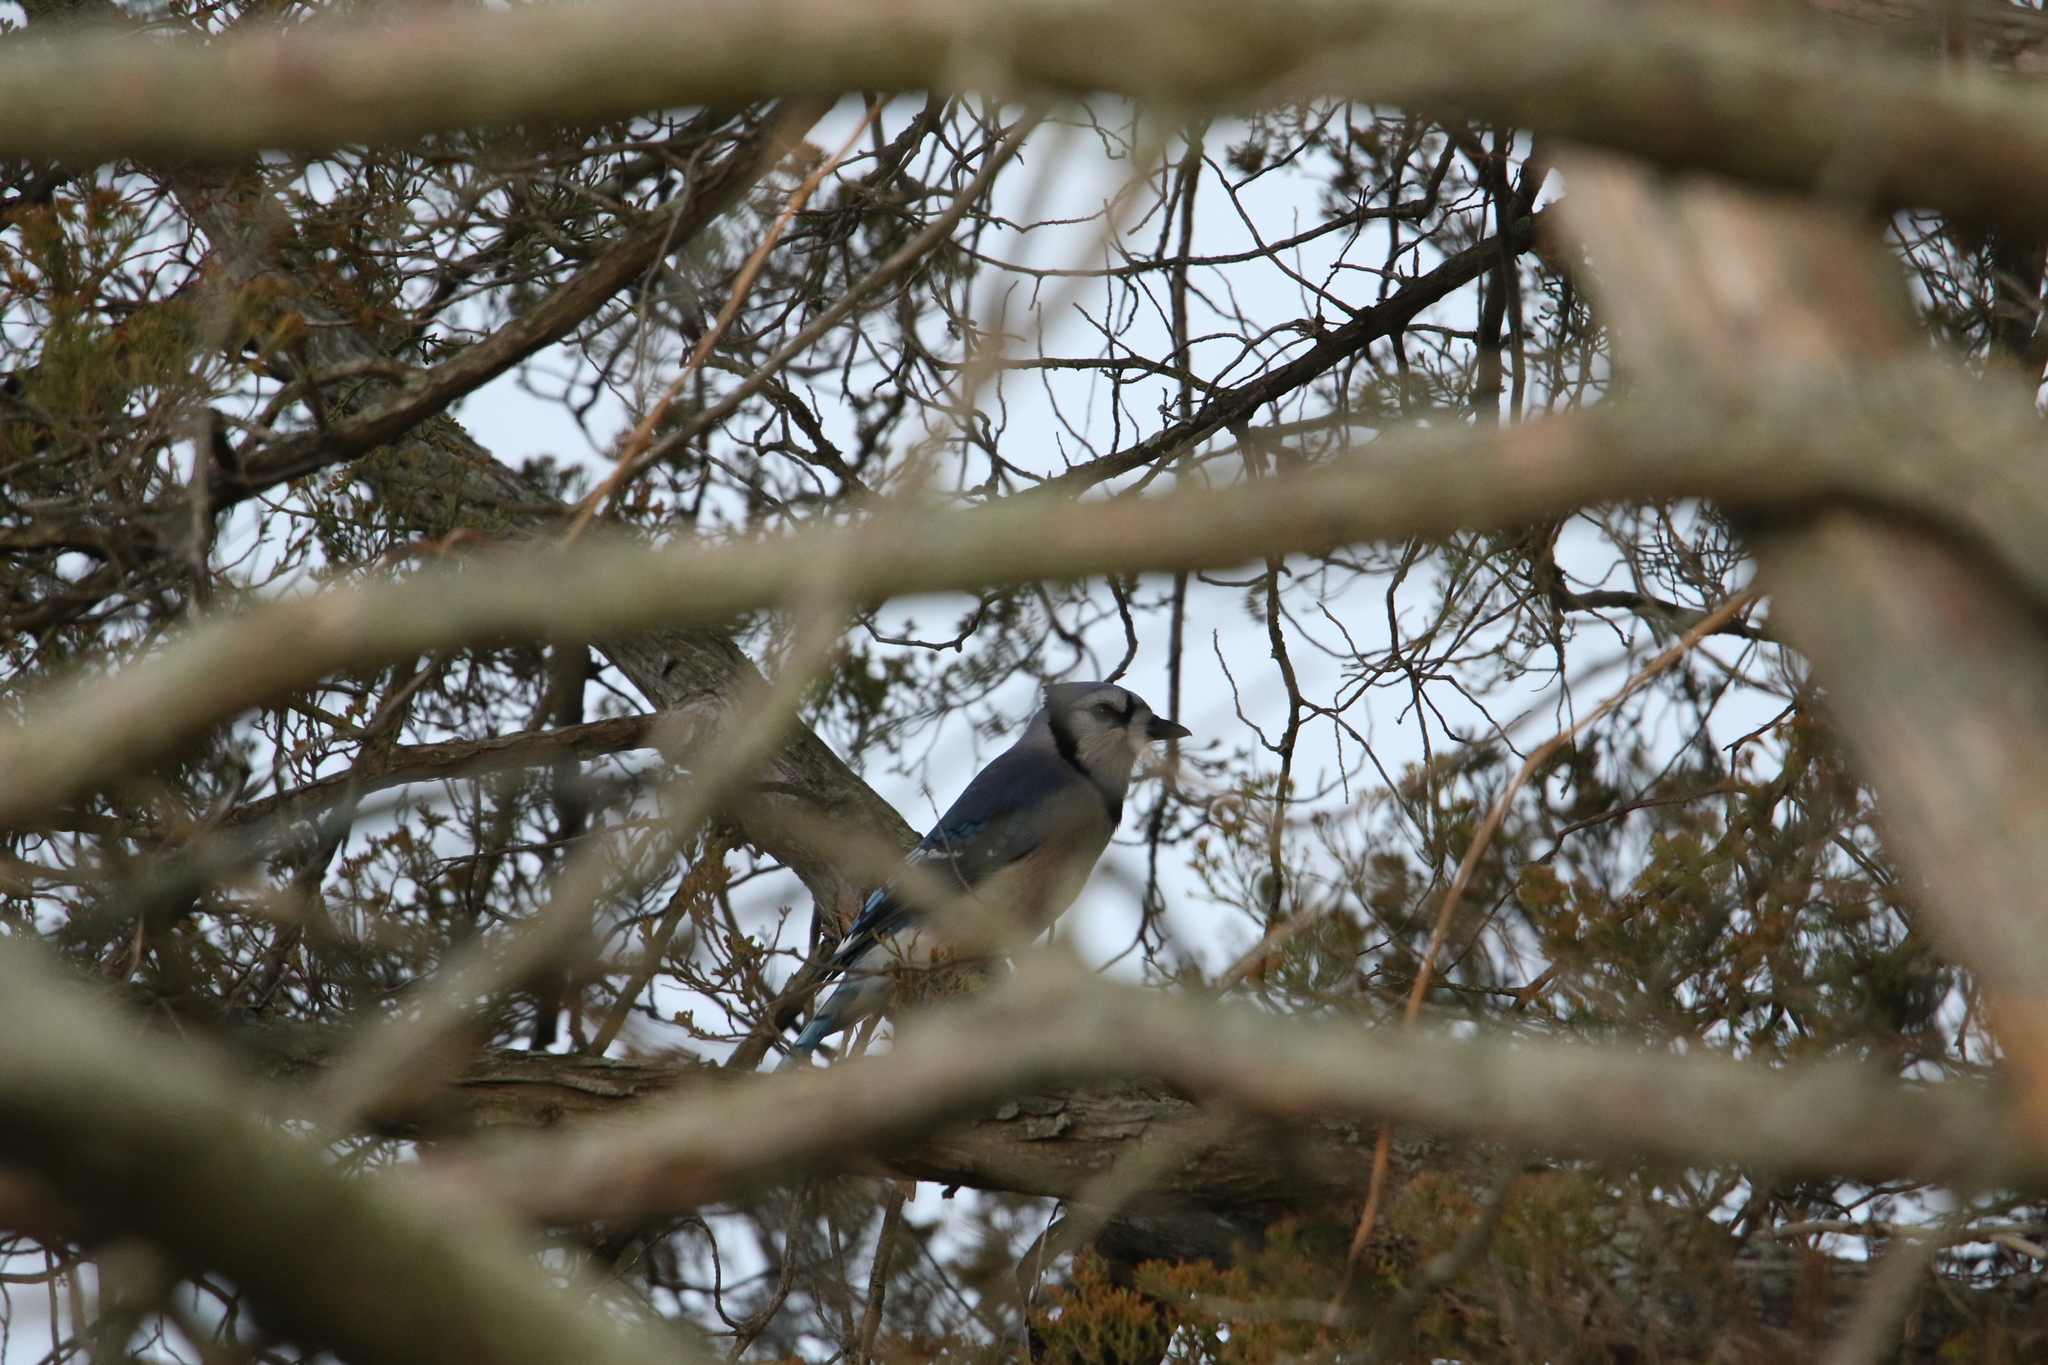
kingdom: Animalia
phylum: Chordata
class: Aves
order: Passeriformes
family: Corvidae
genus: Cyanocitta
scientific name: Cyanocitta cristata
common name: Blue jay
